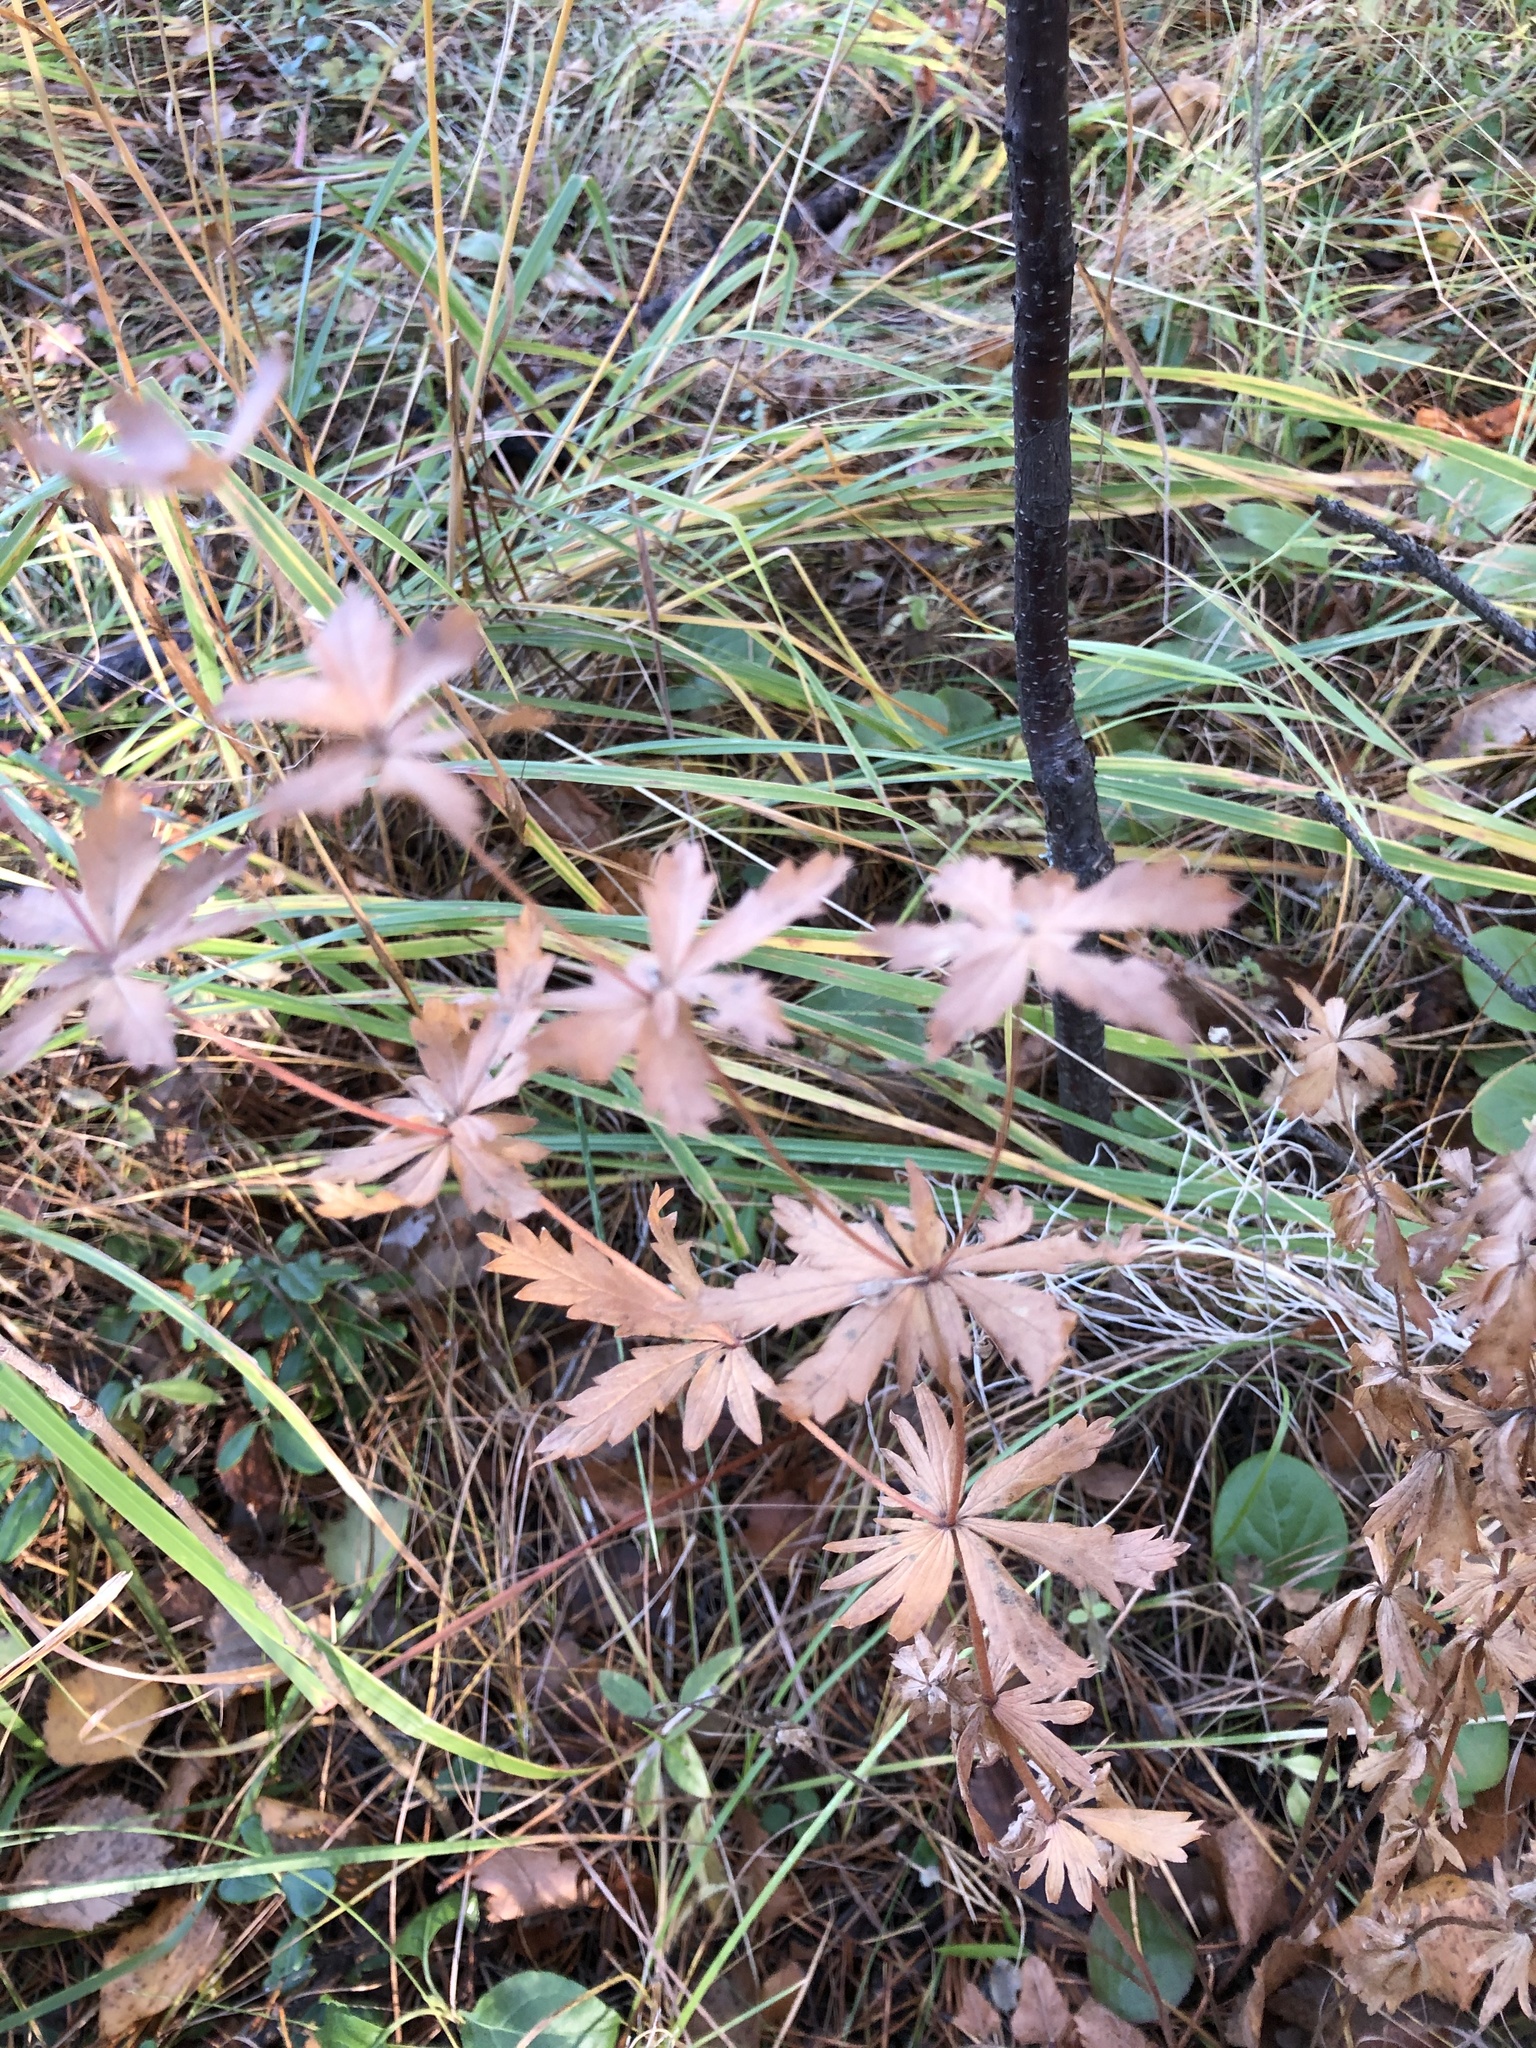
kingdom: Plantae
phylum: Tracheophyta
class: Magnoliopsida
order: Rosales
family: Rosaceae
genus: Potentilla
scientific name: Potentilla erecta
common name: Tormentil
